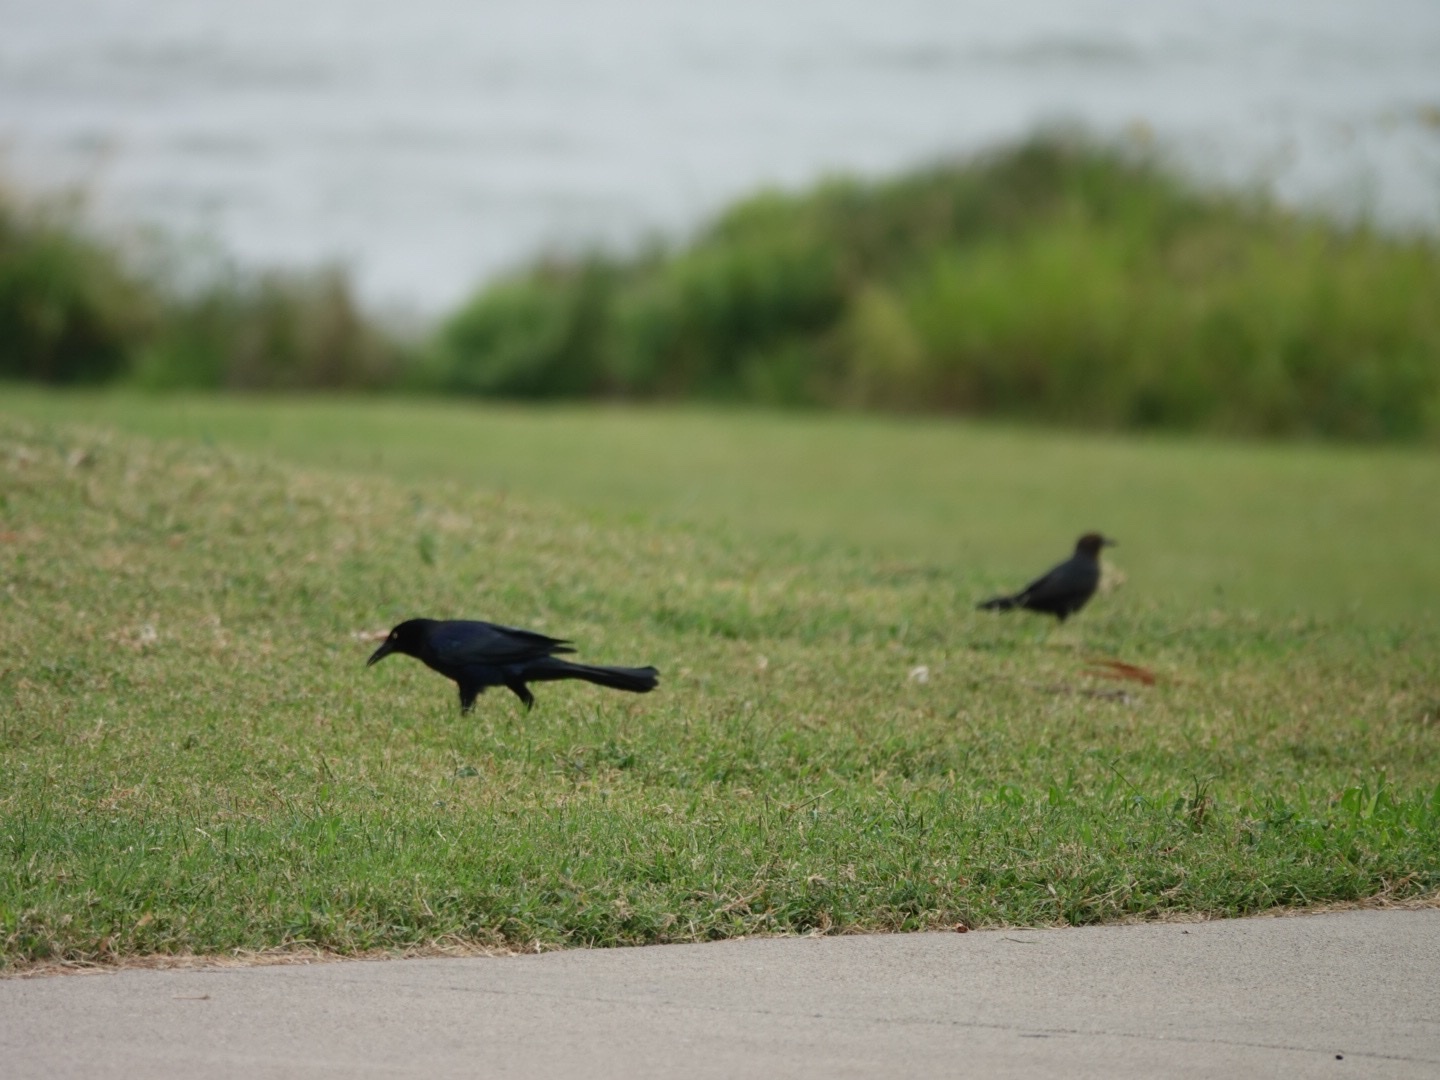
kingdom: Animalia
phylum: Chordata
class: Aves
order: Passeriformes
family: Icteridae
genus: Quiscalus
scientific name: Quiscalus mexicanus
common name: Great-tailed grackle
